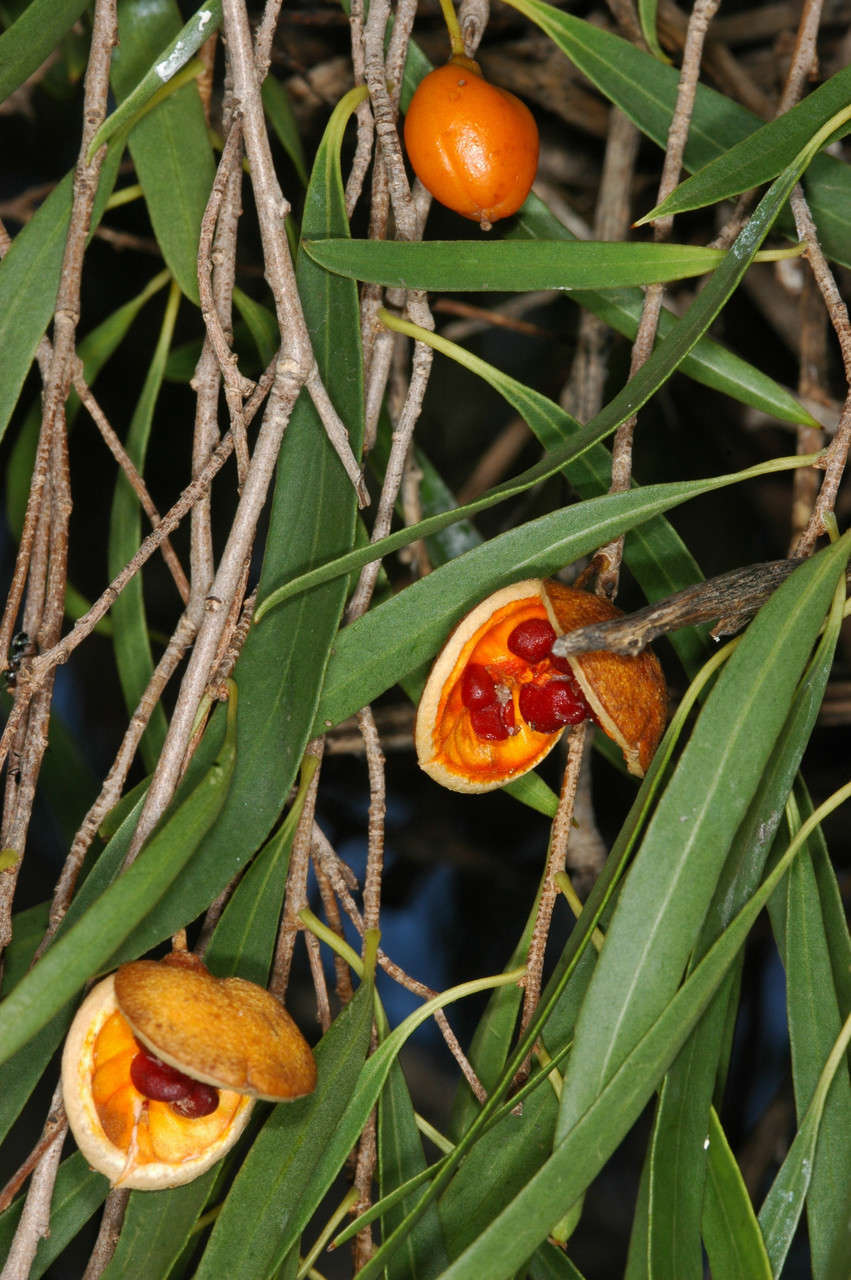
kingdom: Plantae
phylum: Tracheophyta
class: Magnoliopsida
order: Apiales
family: Pittosporaceae
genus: Pittosporum
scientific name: Pittosporum angustifolium
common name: Weeping pittosporum
